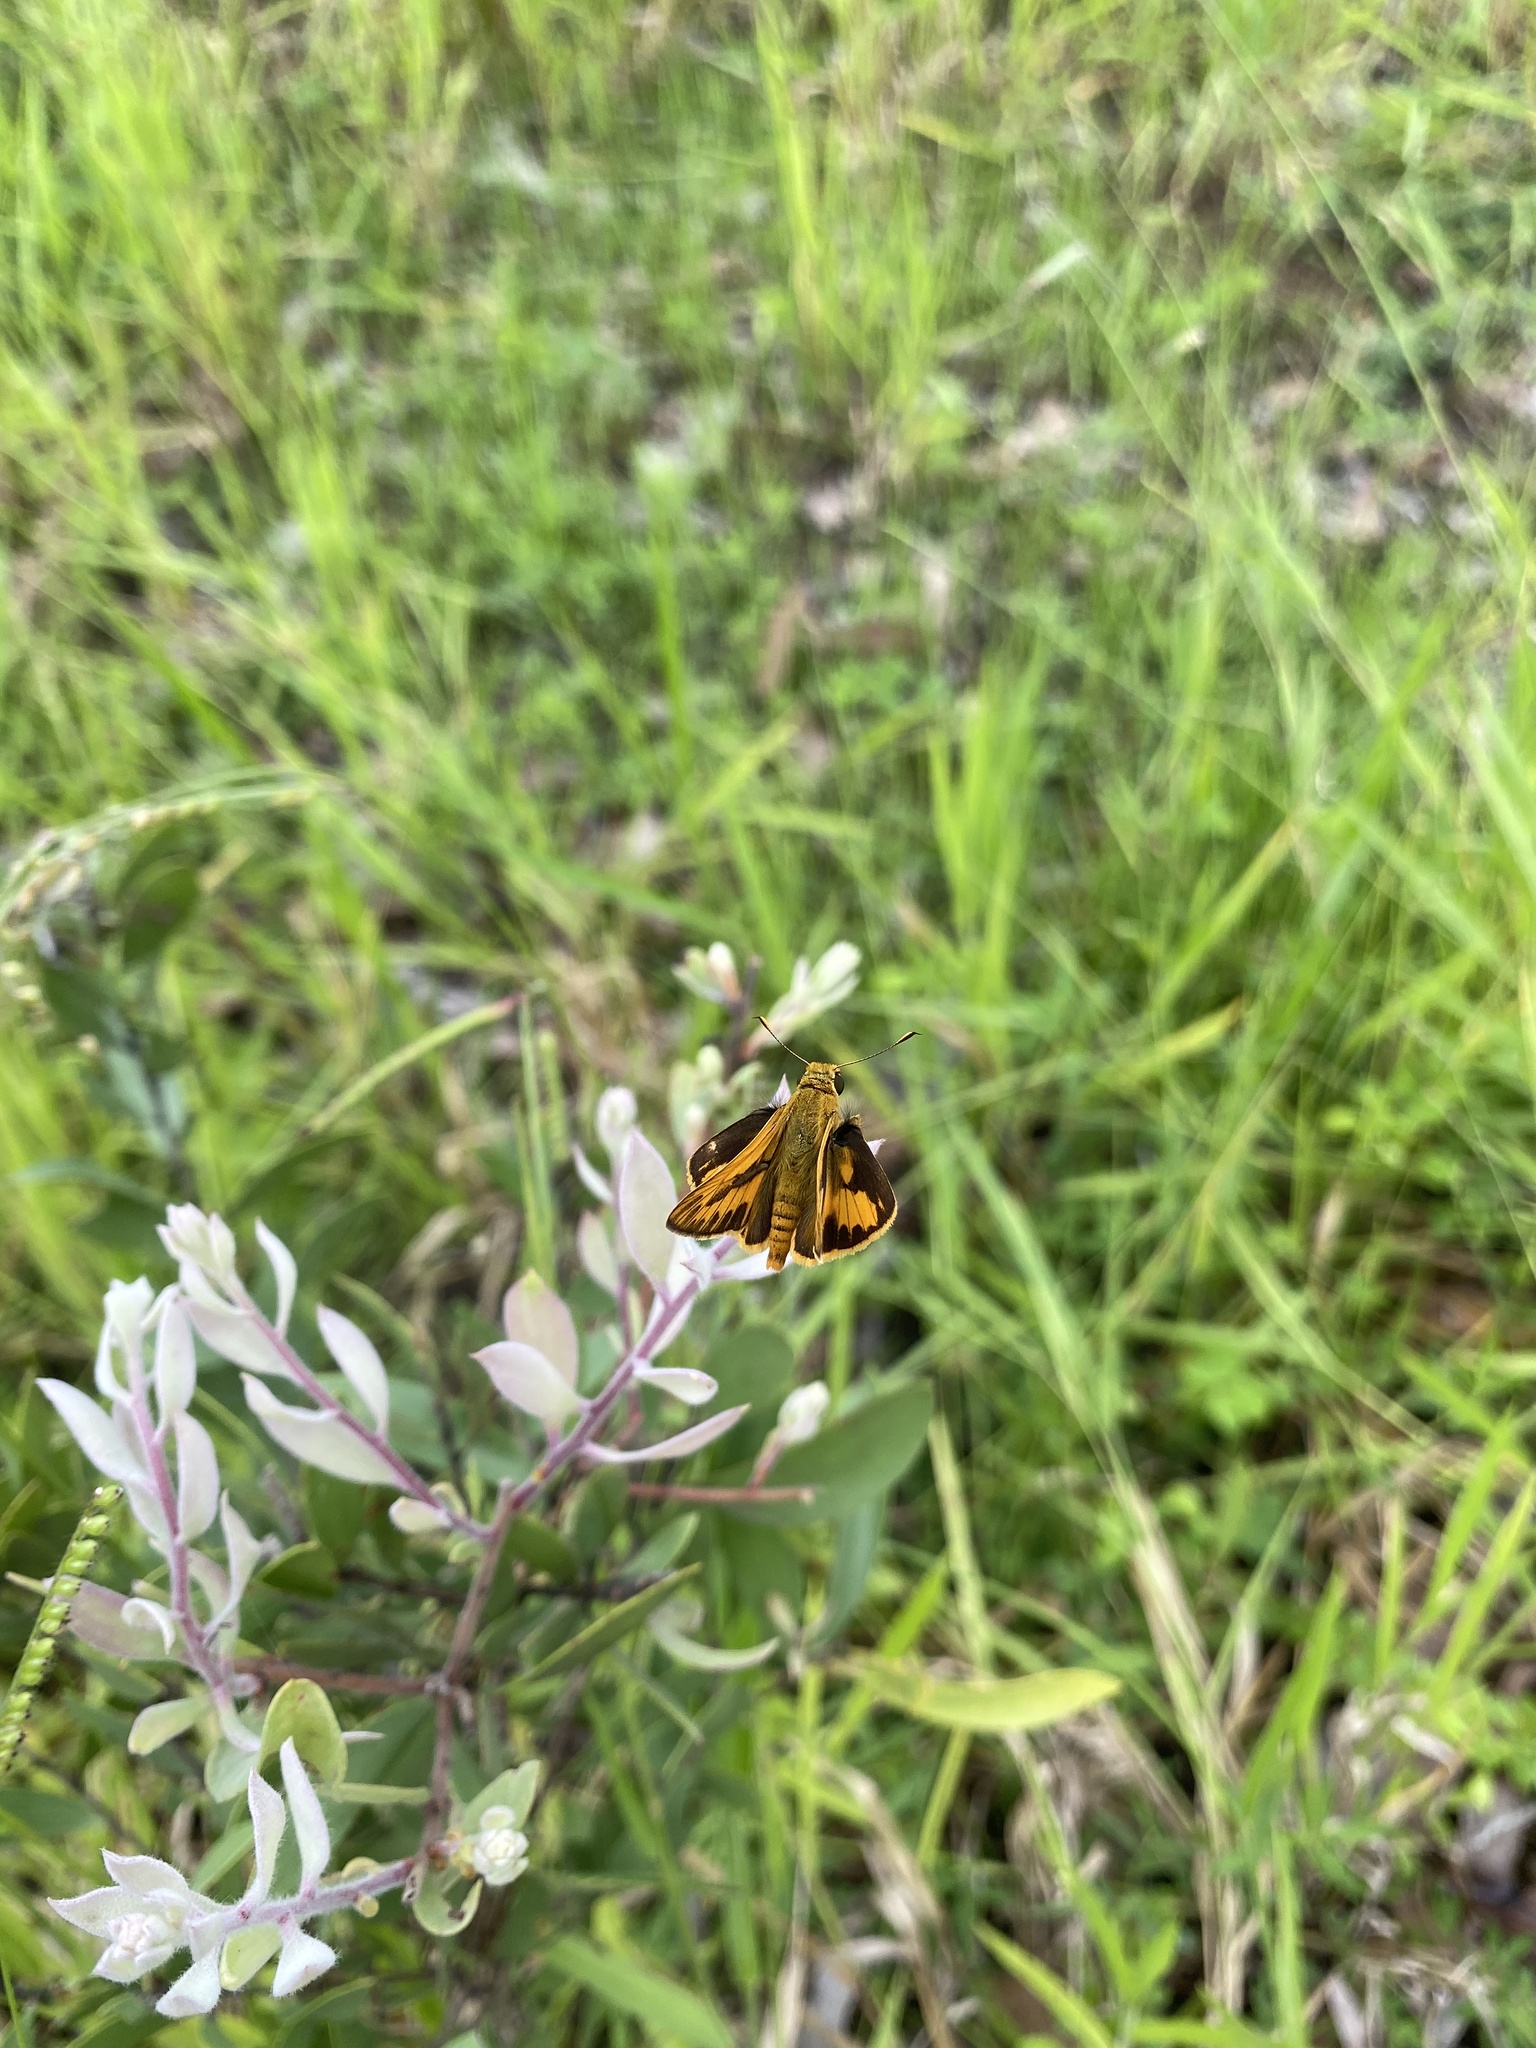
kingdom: Animalia
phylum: Arthropoda
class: Insecta
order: Lepidoptera
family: Hesperiidae
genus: Telicota
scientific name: Telicota colon
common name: Pale palm dart
